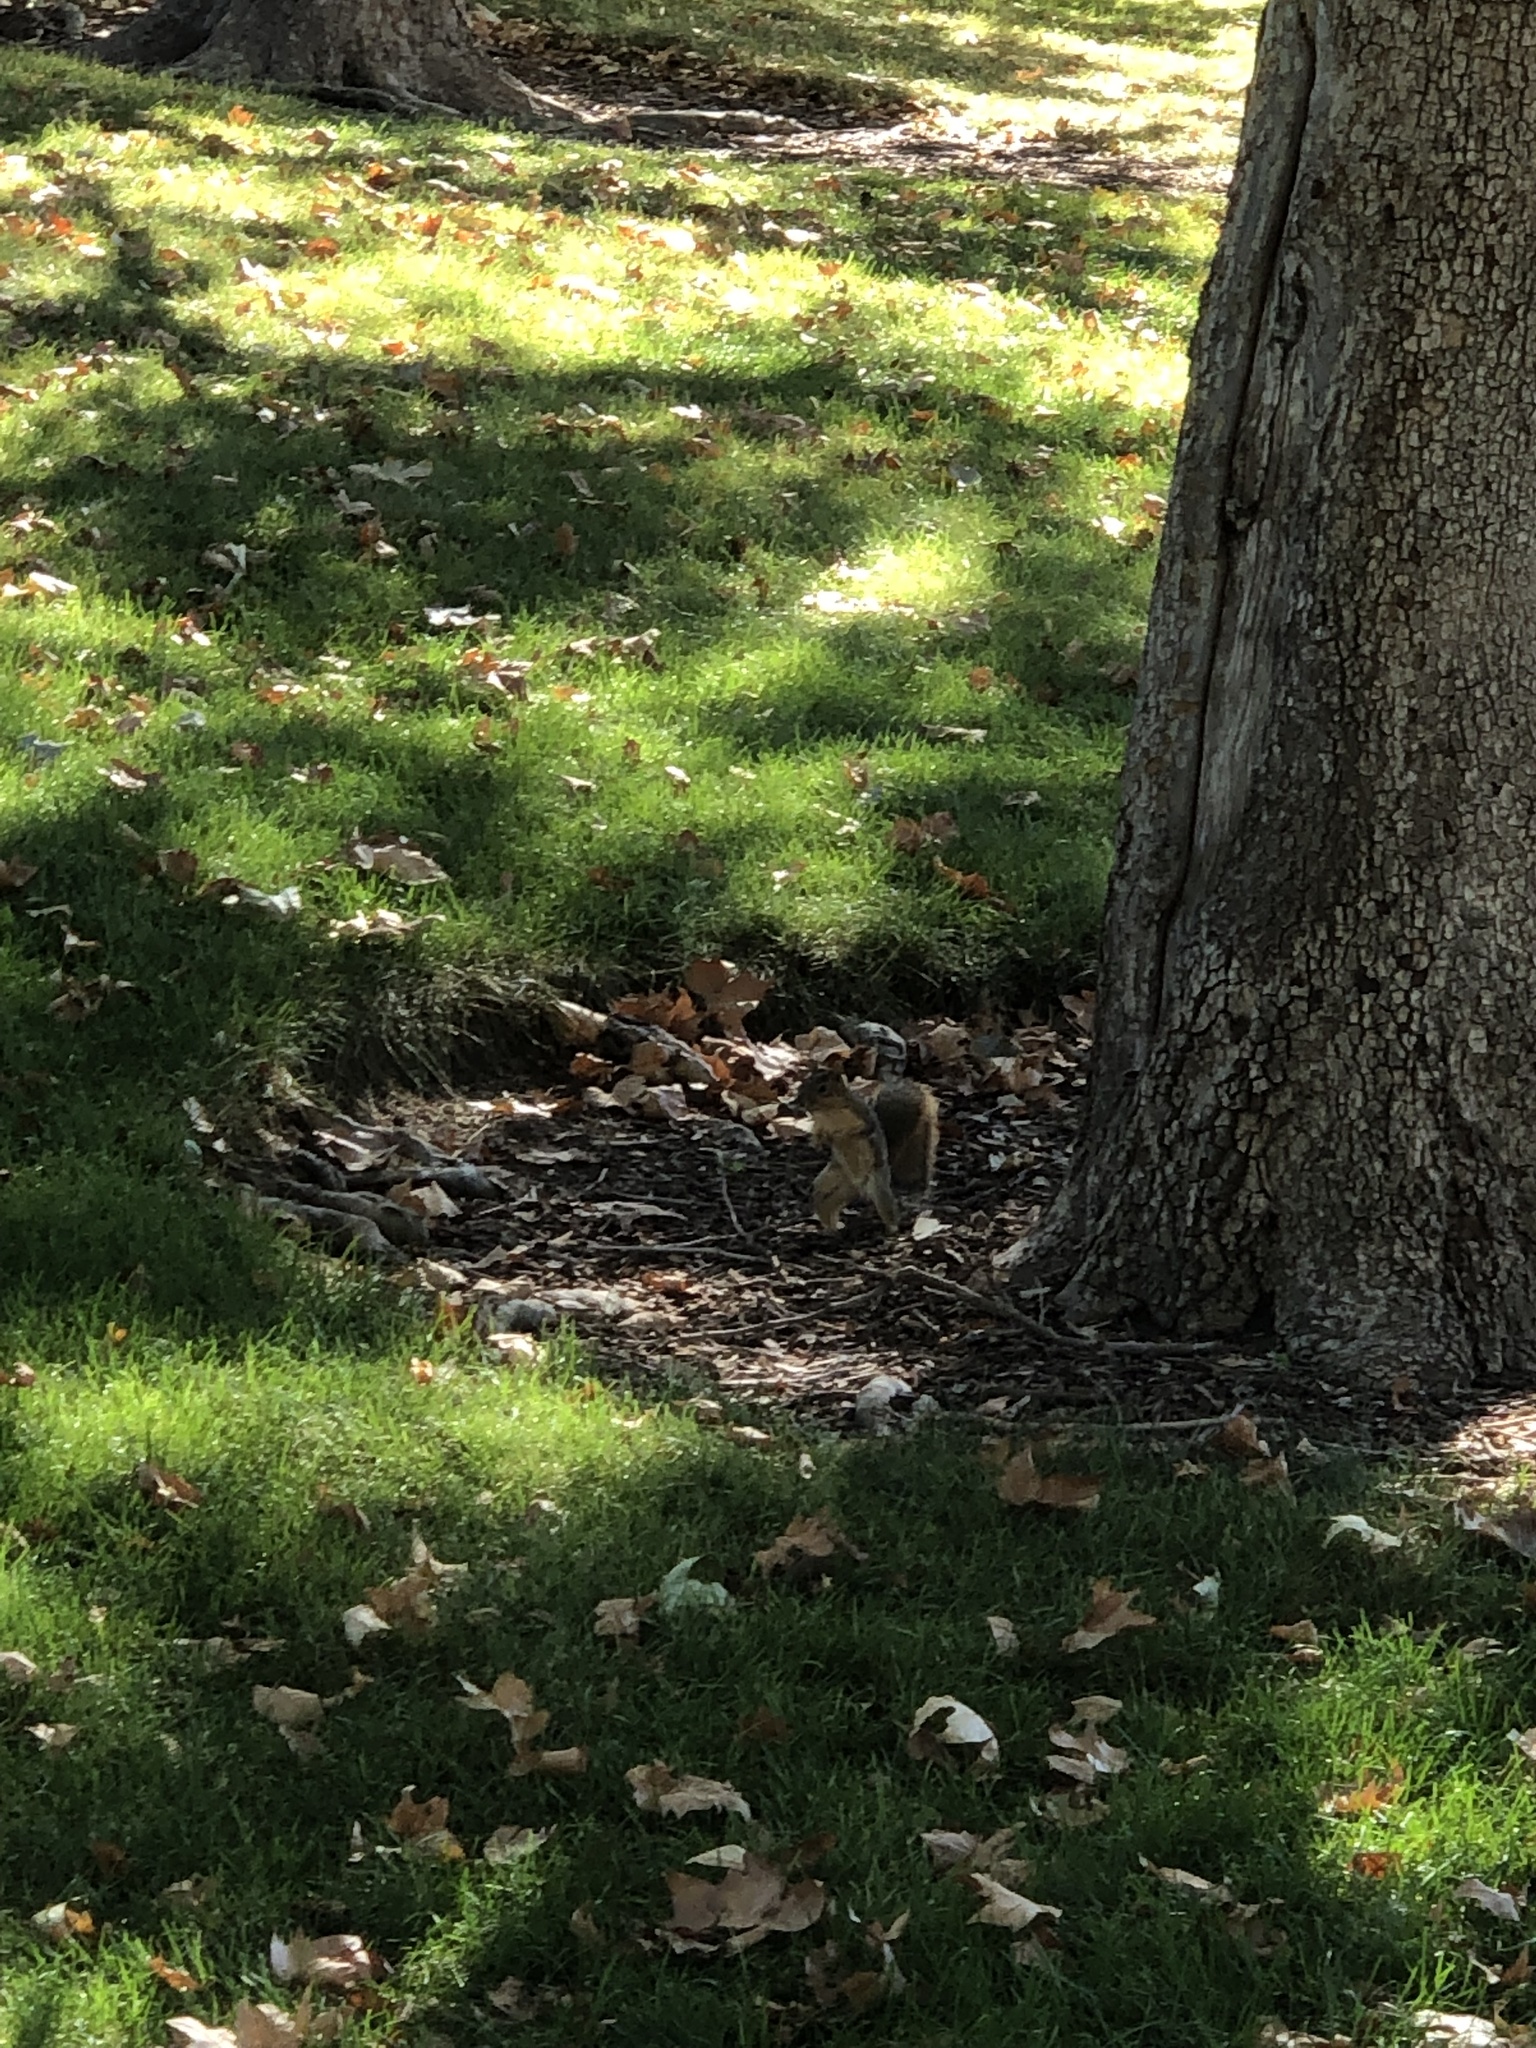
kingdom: Animalia
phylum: Chordata
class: Mammalia
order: Rodentia
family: Sciuridae
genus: Sciurus
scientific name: Sciurus niger
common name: Fox squirrel
